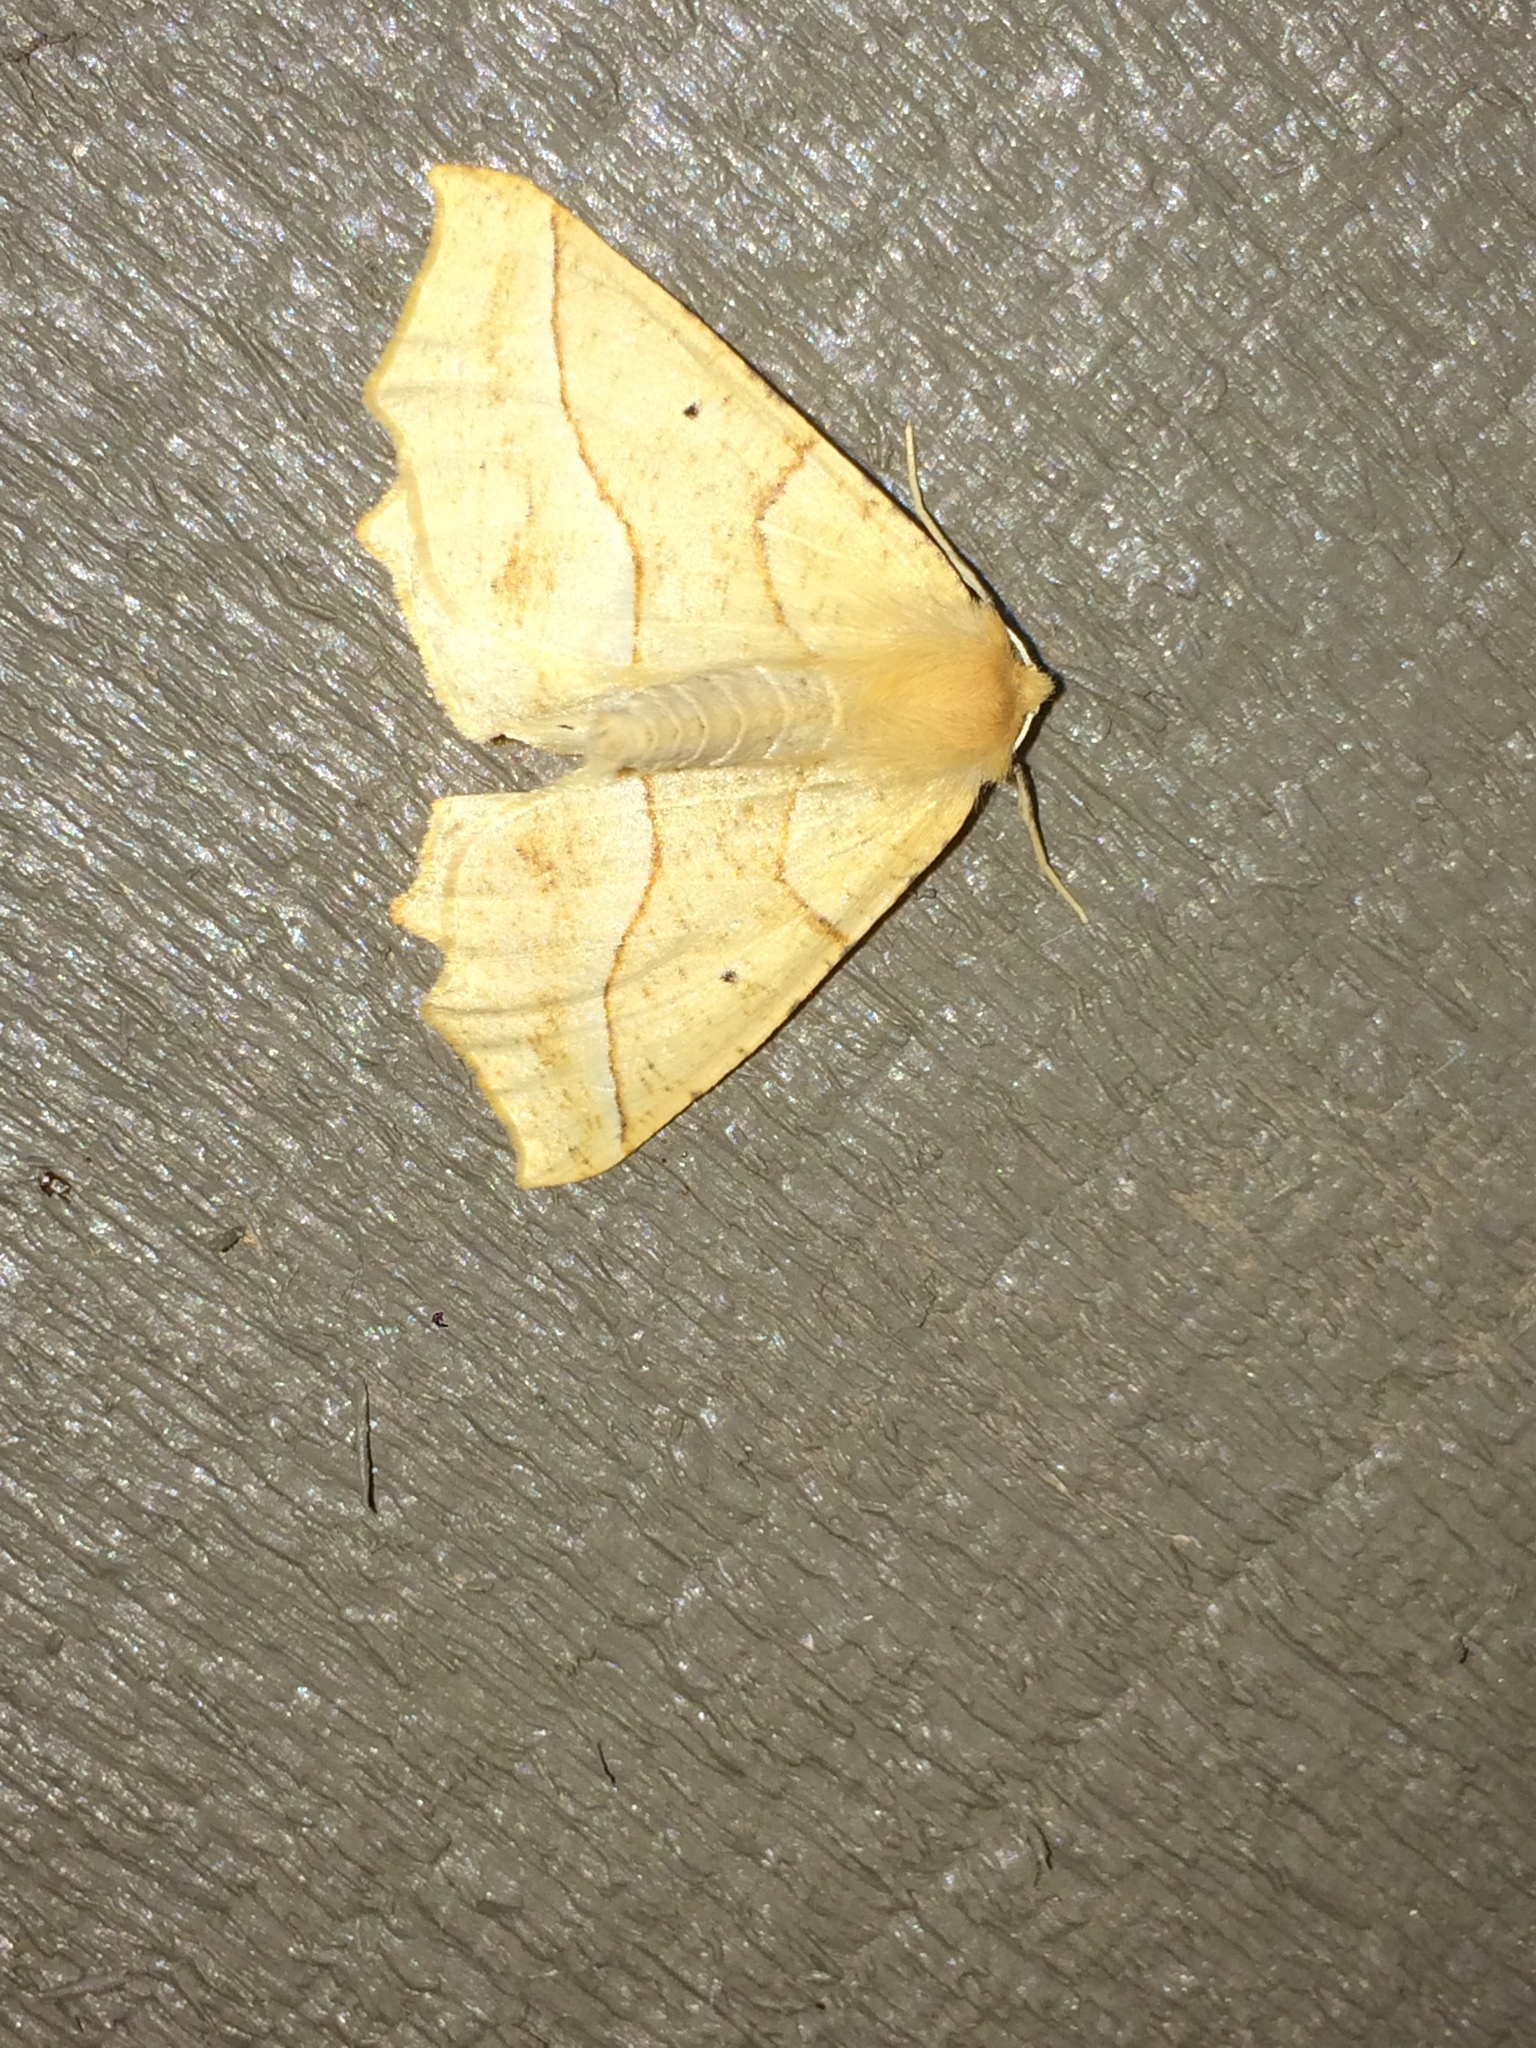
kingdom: Animalia
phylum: Arthropoda
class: Insecta
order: Lepidoptera
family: Geometridae
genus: Synaxis
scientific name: Synaxis jubararia
